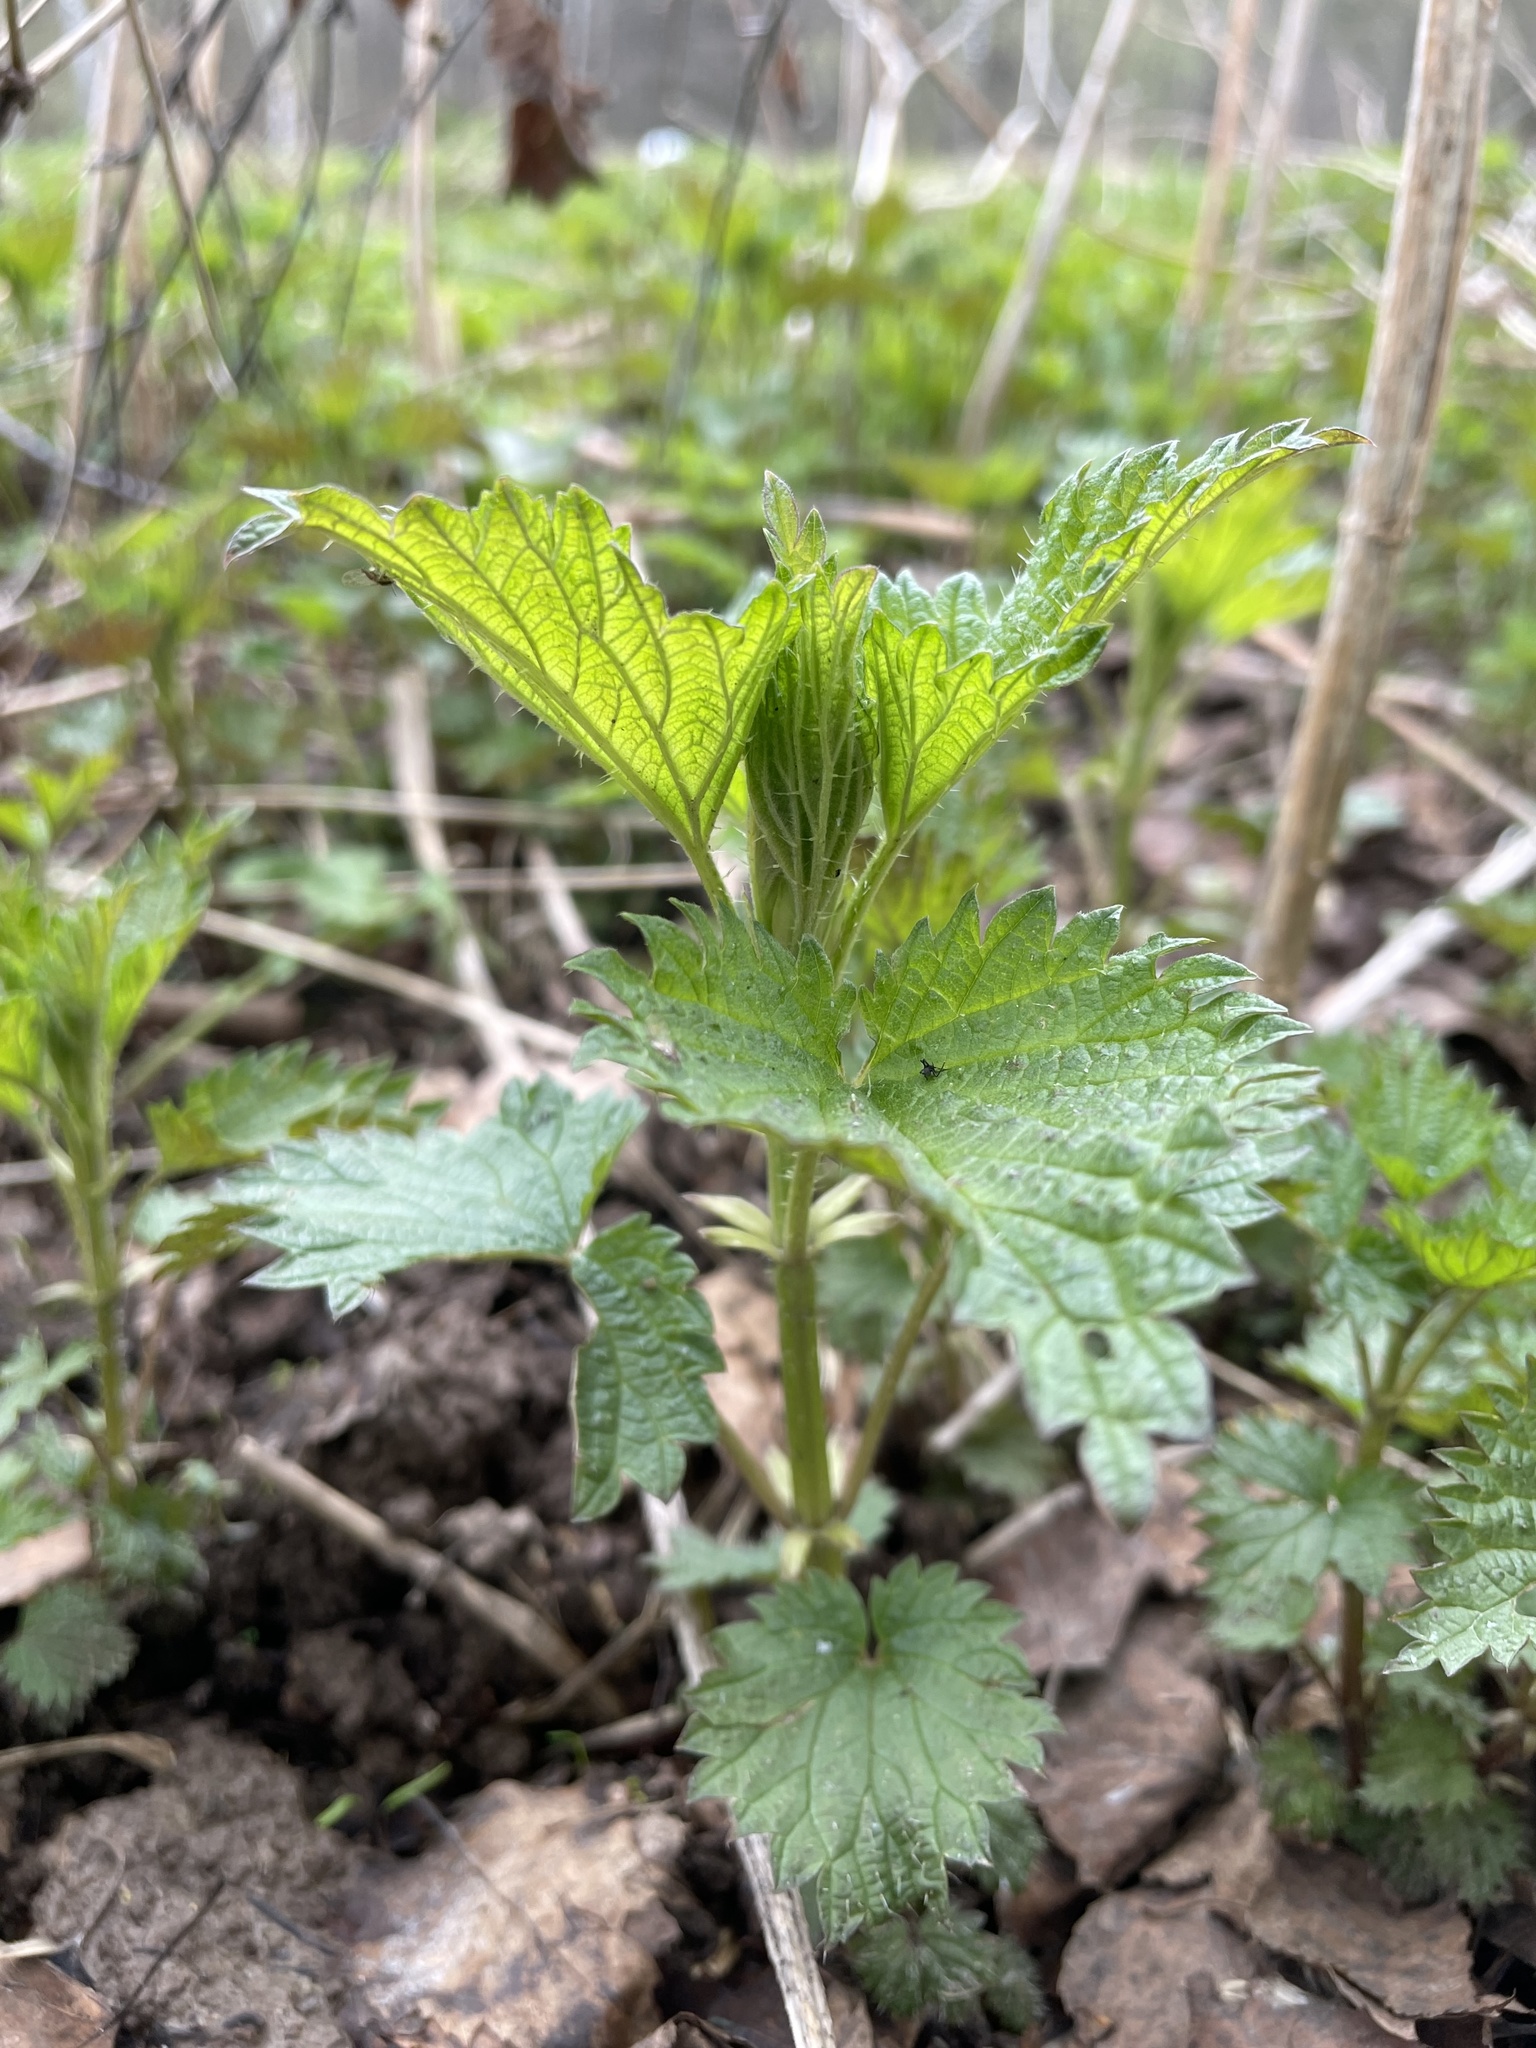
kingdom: Plantae
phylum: Tracheophyta
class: Magnoliopsida
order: Rosales
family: Urticaceae
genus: Urtica
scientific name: Urtica dioica
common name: Common nettle
